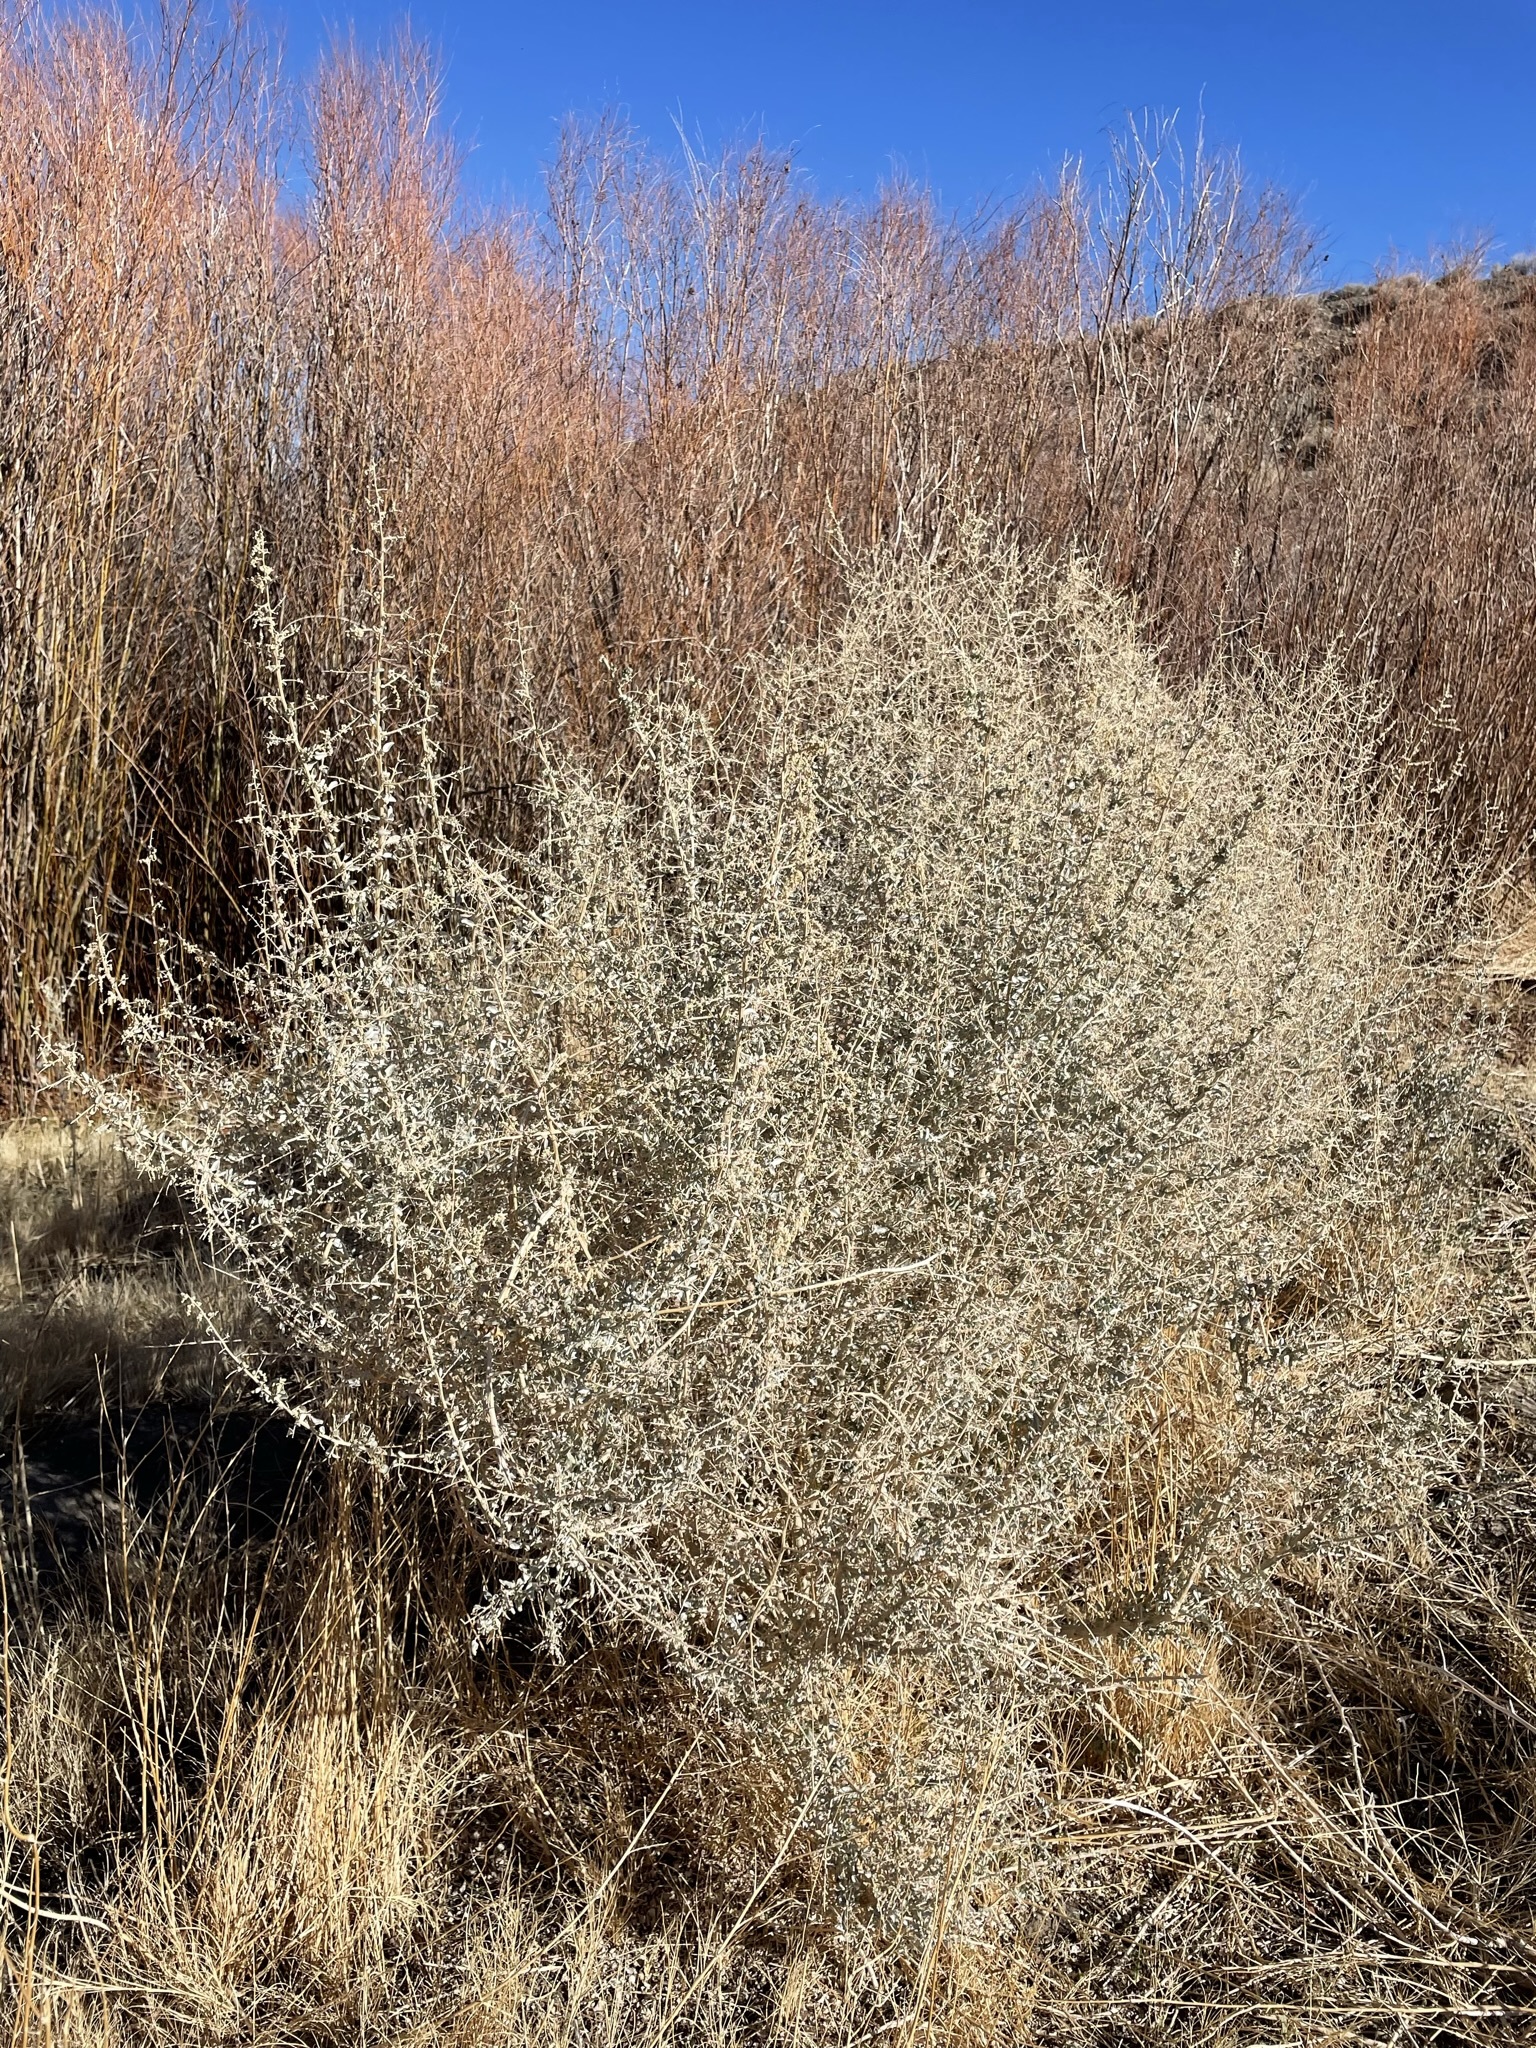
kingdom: Plantae
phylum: Tracheophyta
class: Magnoliopsida
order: Caryophyllales
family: Amaranthaceae
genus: Atriplex
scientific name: Atriplex torreyi
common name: Torrey's saltbush
